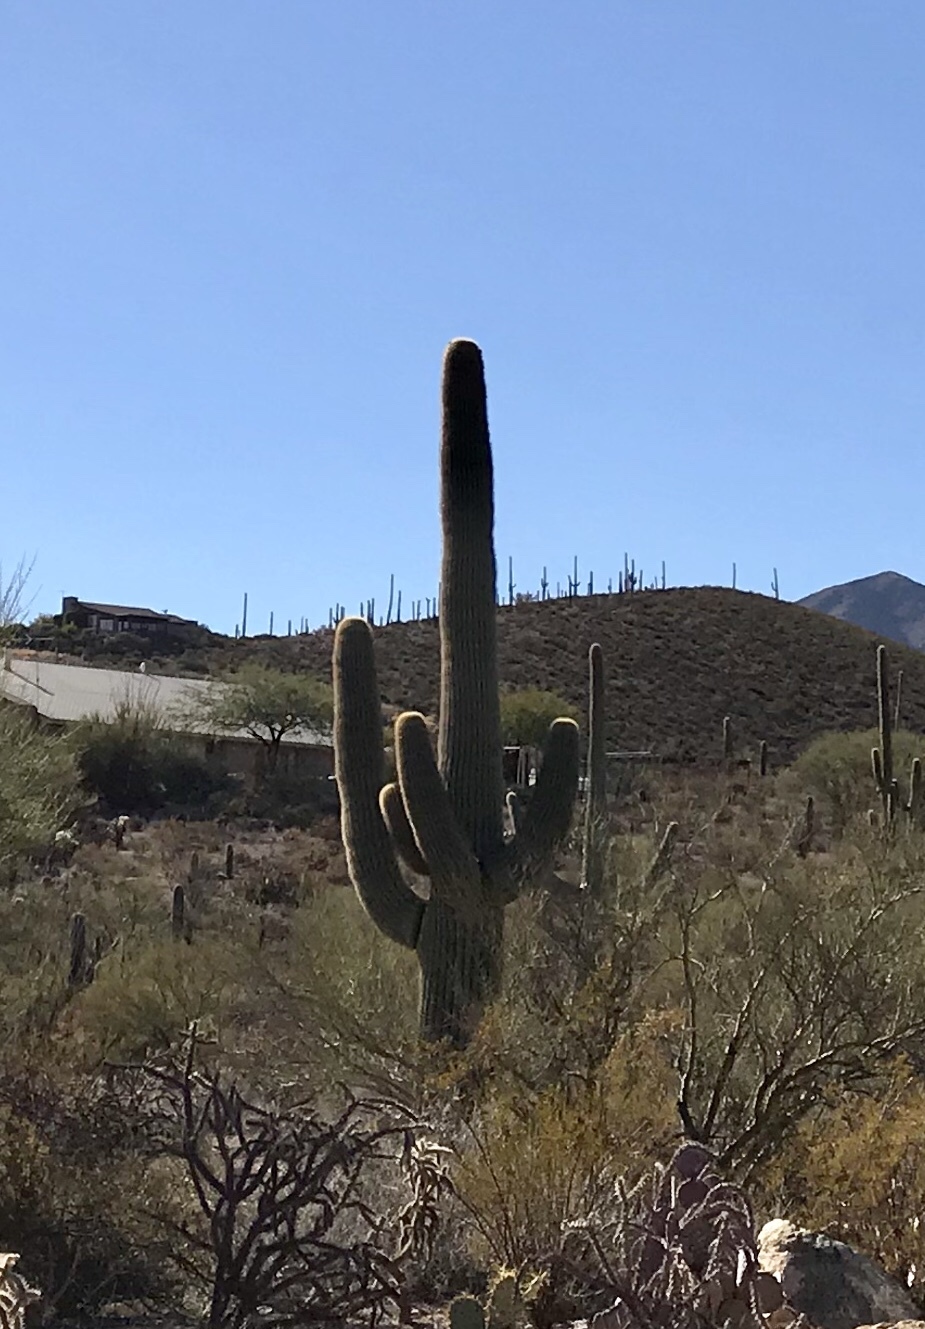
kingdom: Plantae
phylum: Tracheophyta
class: Magnoliopsida
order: Caryophyllales
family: Cactaceae
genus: Carnegiea
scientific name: Carnegiea gigantea
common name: Saguaro
